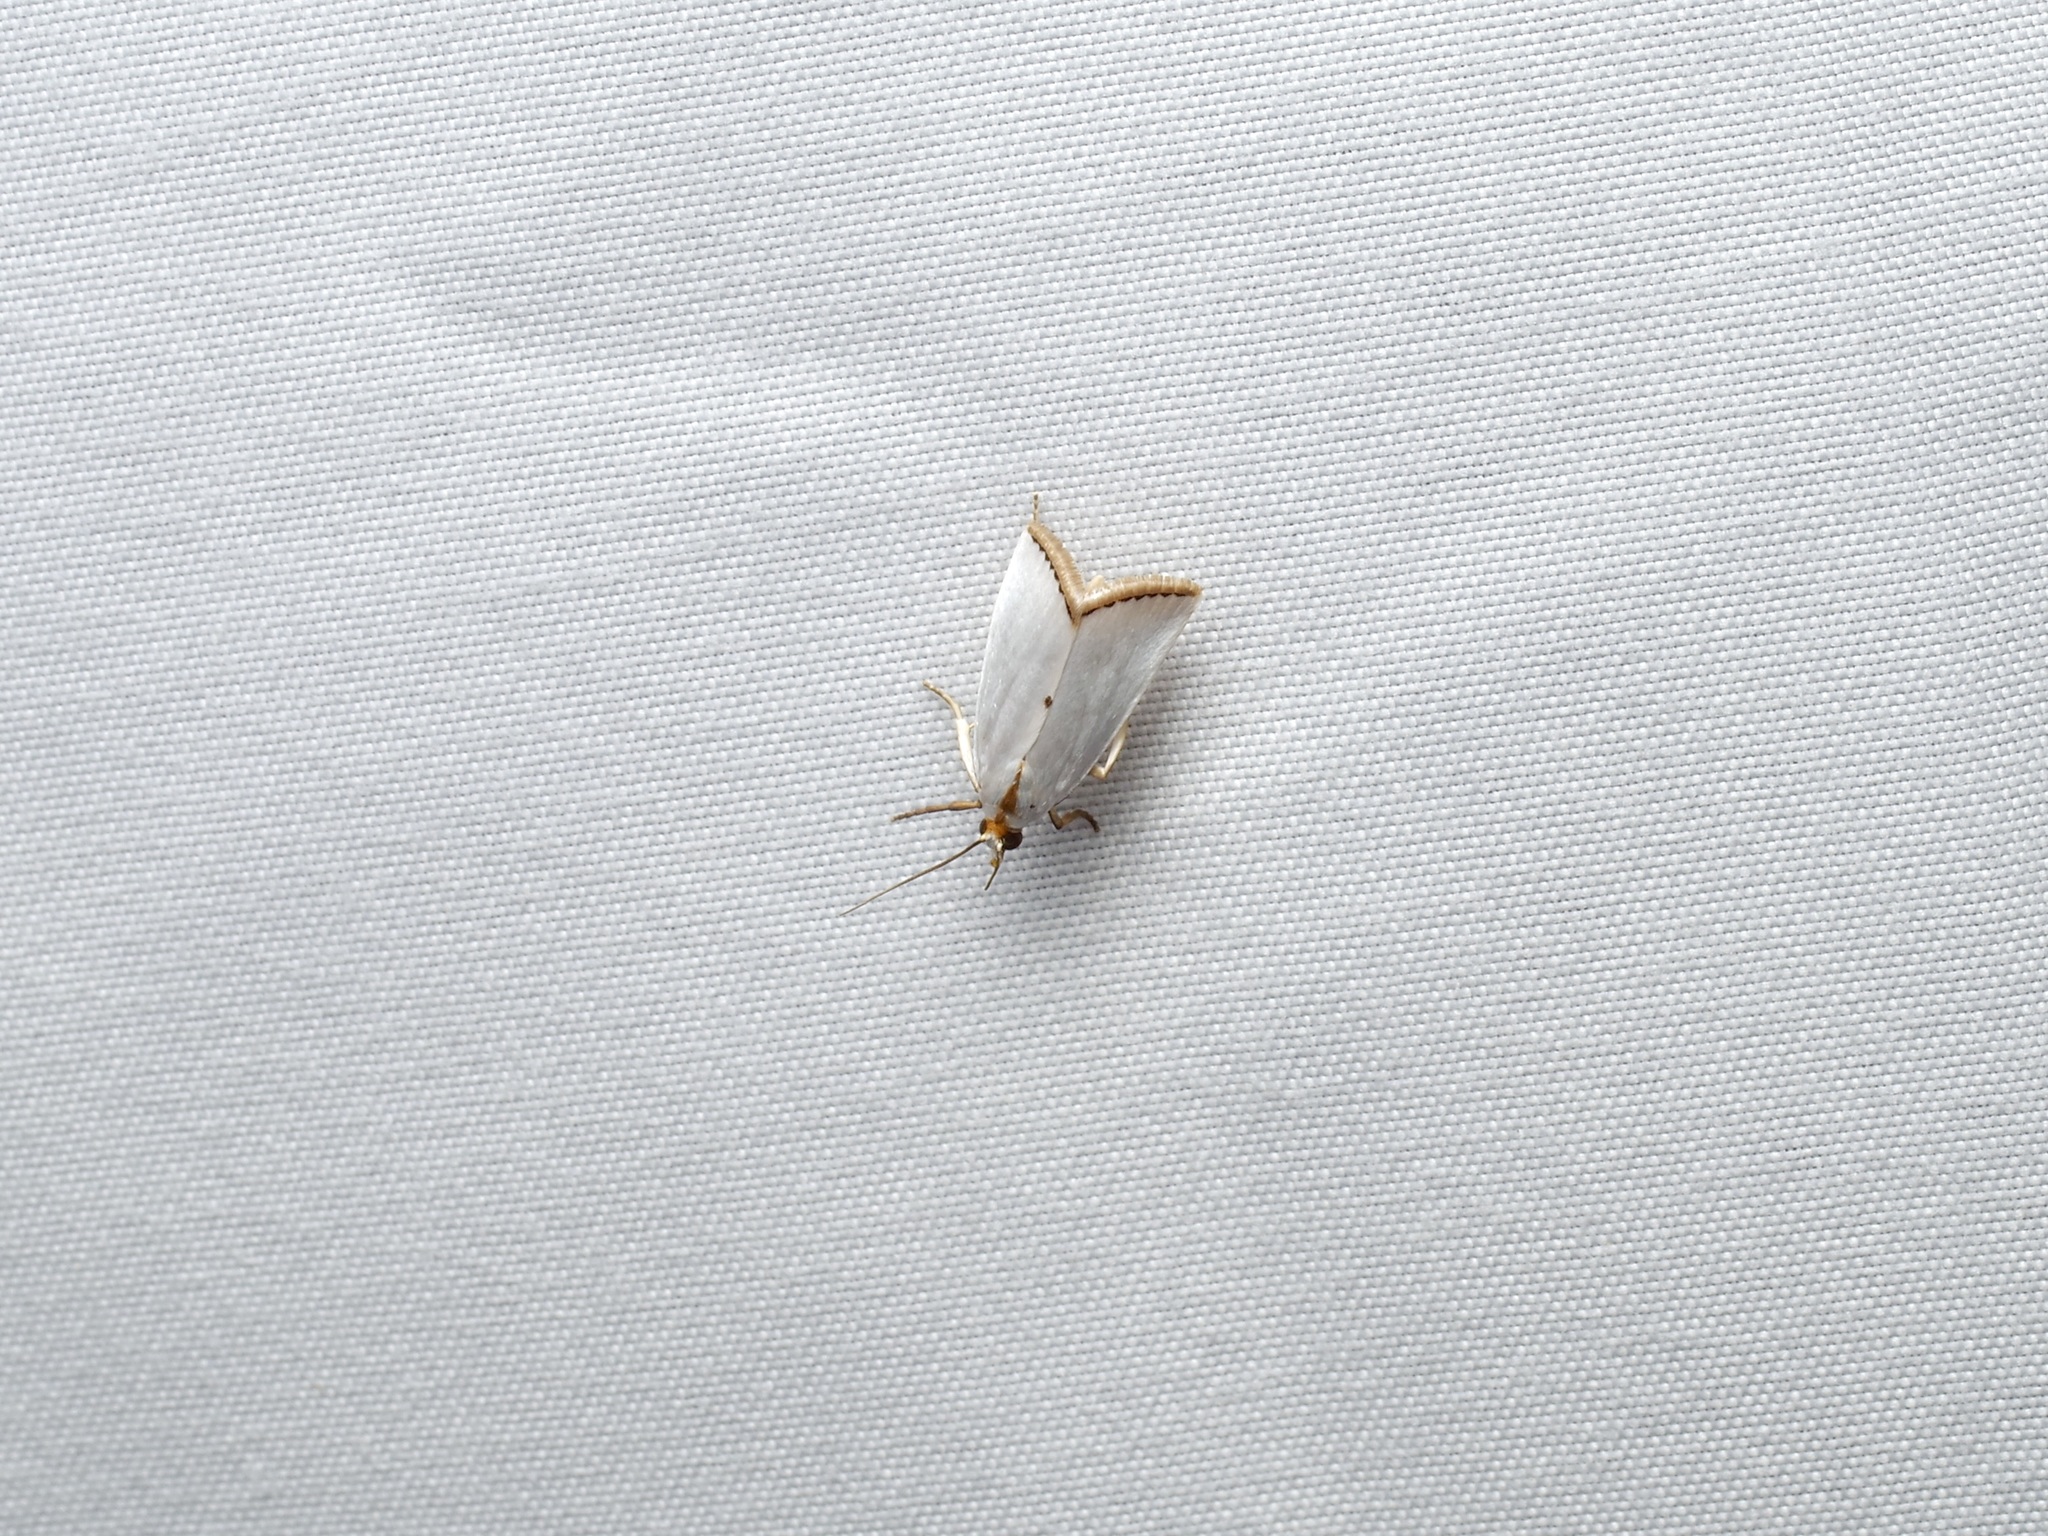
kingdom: Animalia
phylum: Arthropoda
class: Insecta
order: Lepidoptera
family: Crambidae
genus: Argyria
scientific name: Argyria nivalis
